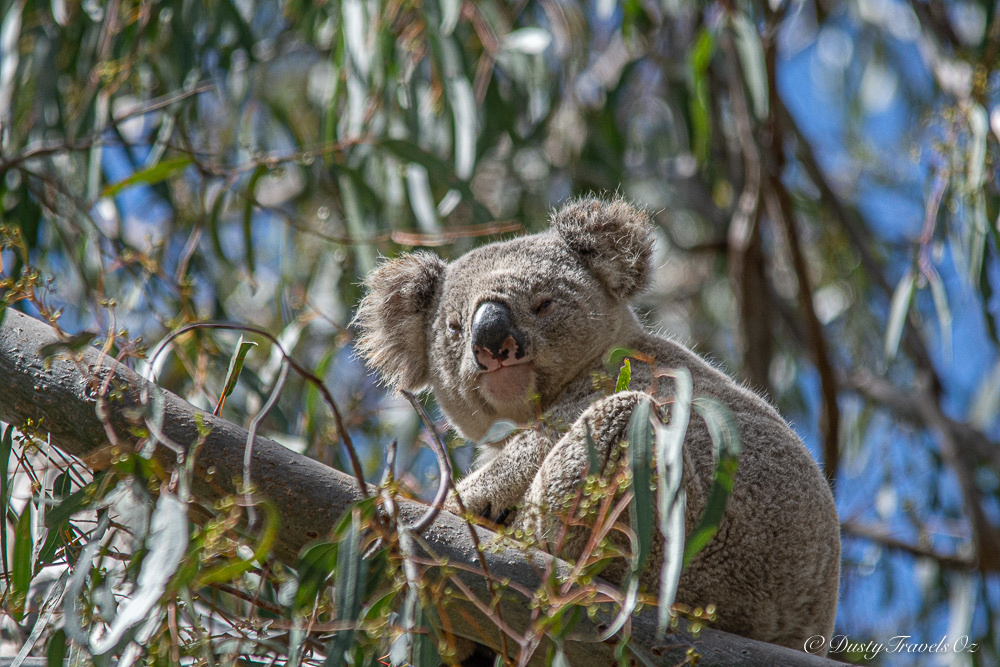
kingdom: Animalia
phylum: Chordata
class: Mammalia
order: Diprotodontia
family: Phascolarctidae
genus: Phascolarctos
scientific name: Phascolarctos cinereus
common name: Koala
